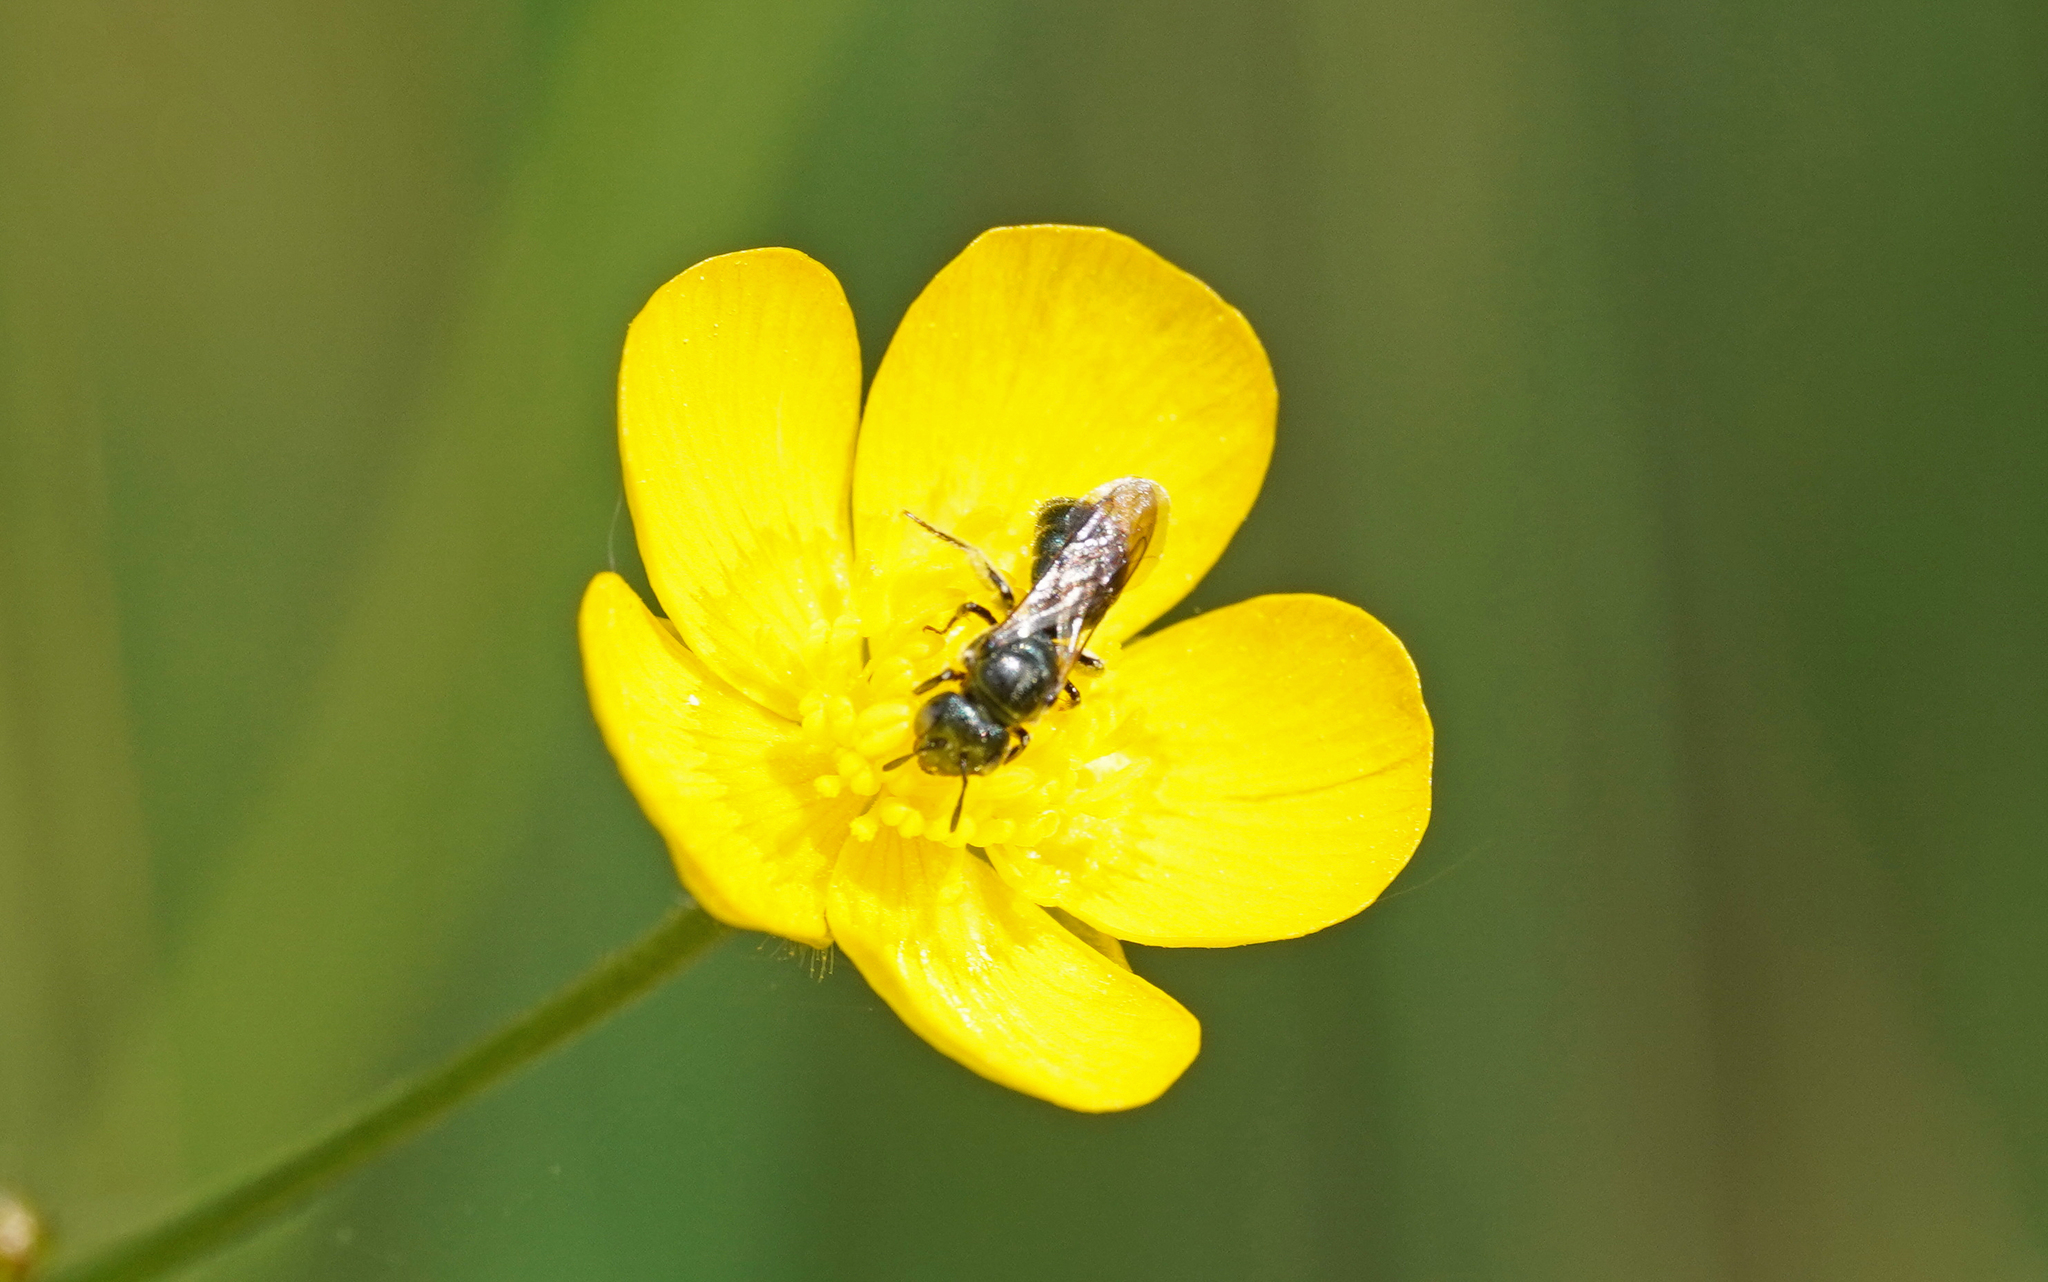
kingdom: Animalia
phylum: Arthropoda
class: Insecta
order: Hymenoptera
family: Apidae
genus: Ceratina
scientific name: Ceratina cyanea
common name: Little blue carpenter bee
